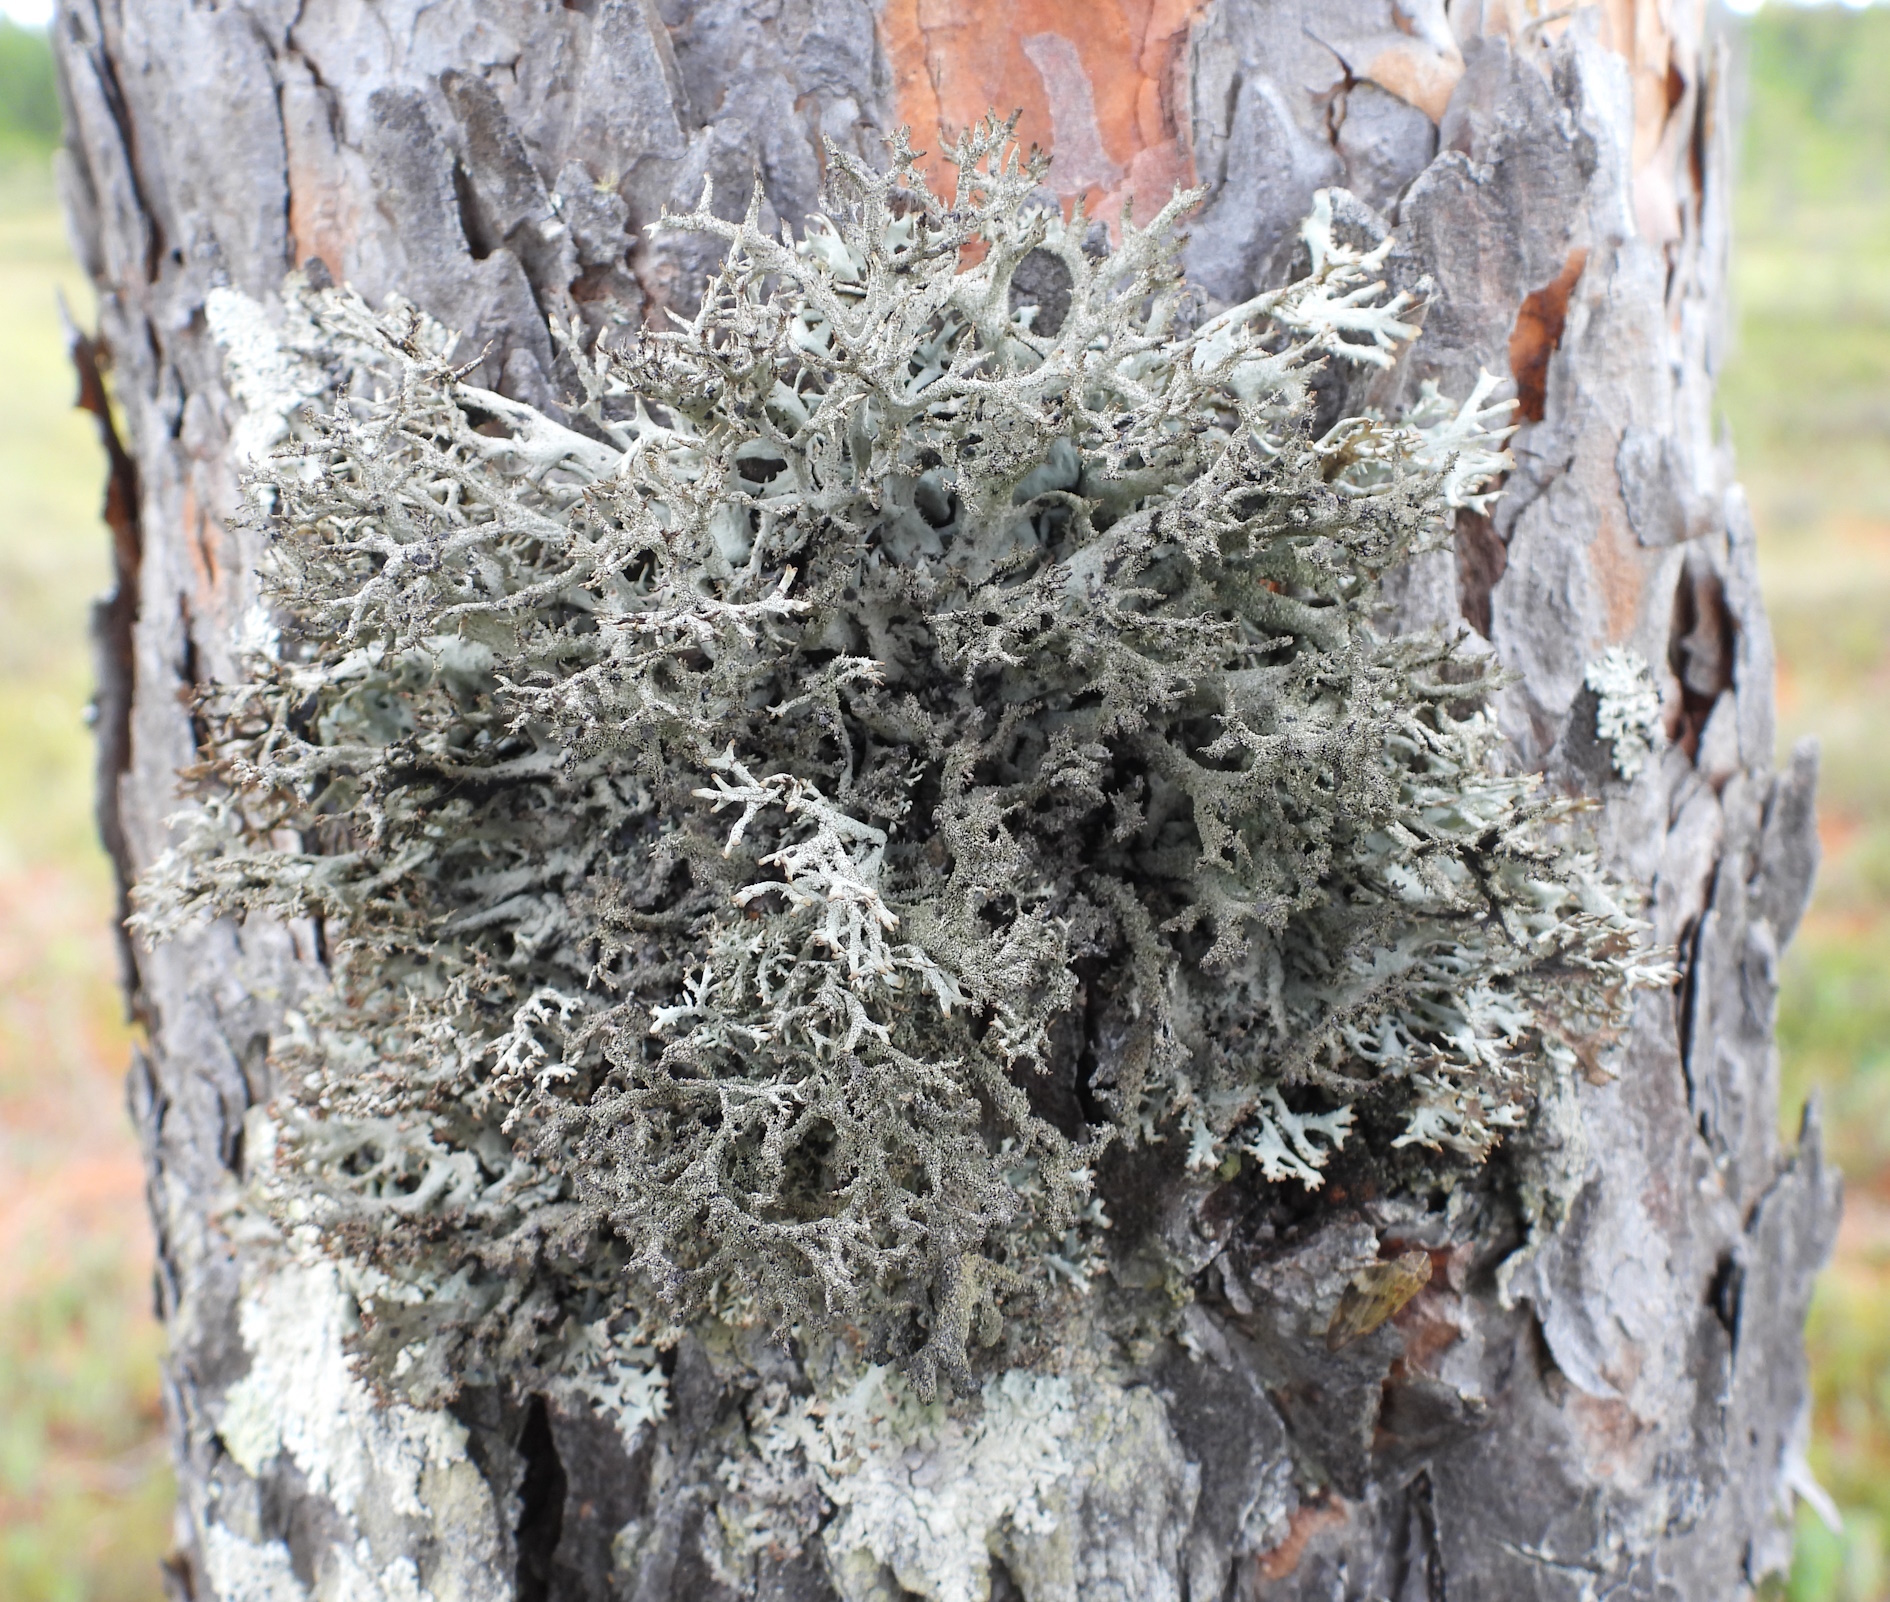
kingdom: Fungi
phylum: Ascomycota
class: Lecanoromycetes
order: Lecanorales
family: Parmeliaceae
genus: Pseudevernia
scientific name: Pseudevernia furfuracea
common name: Tree moss
